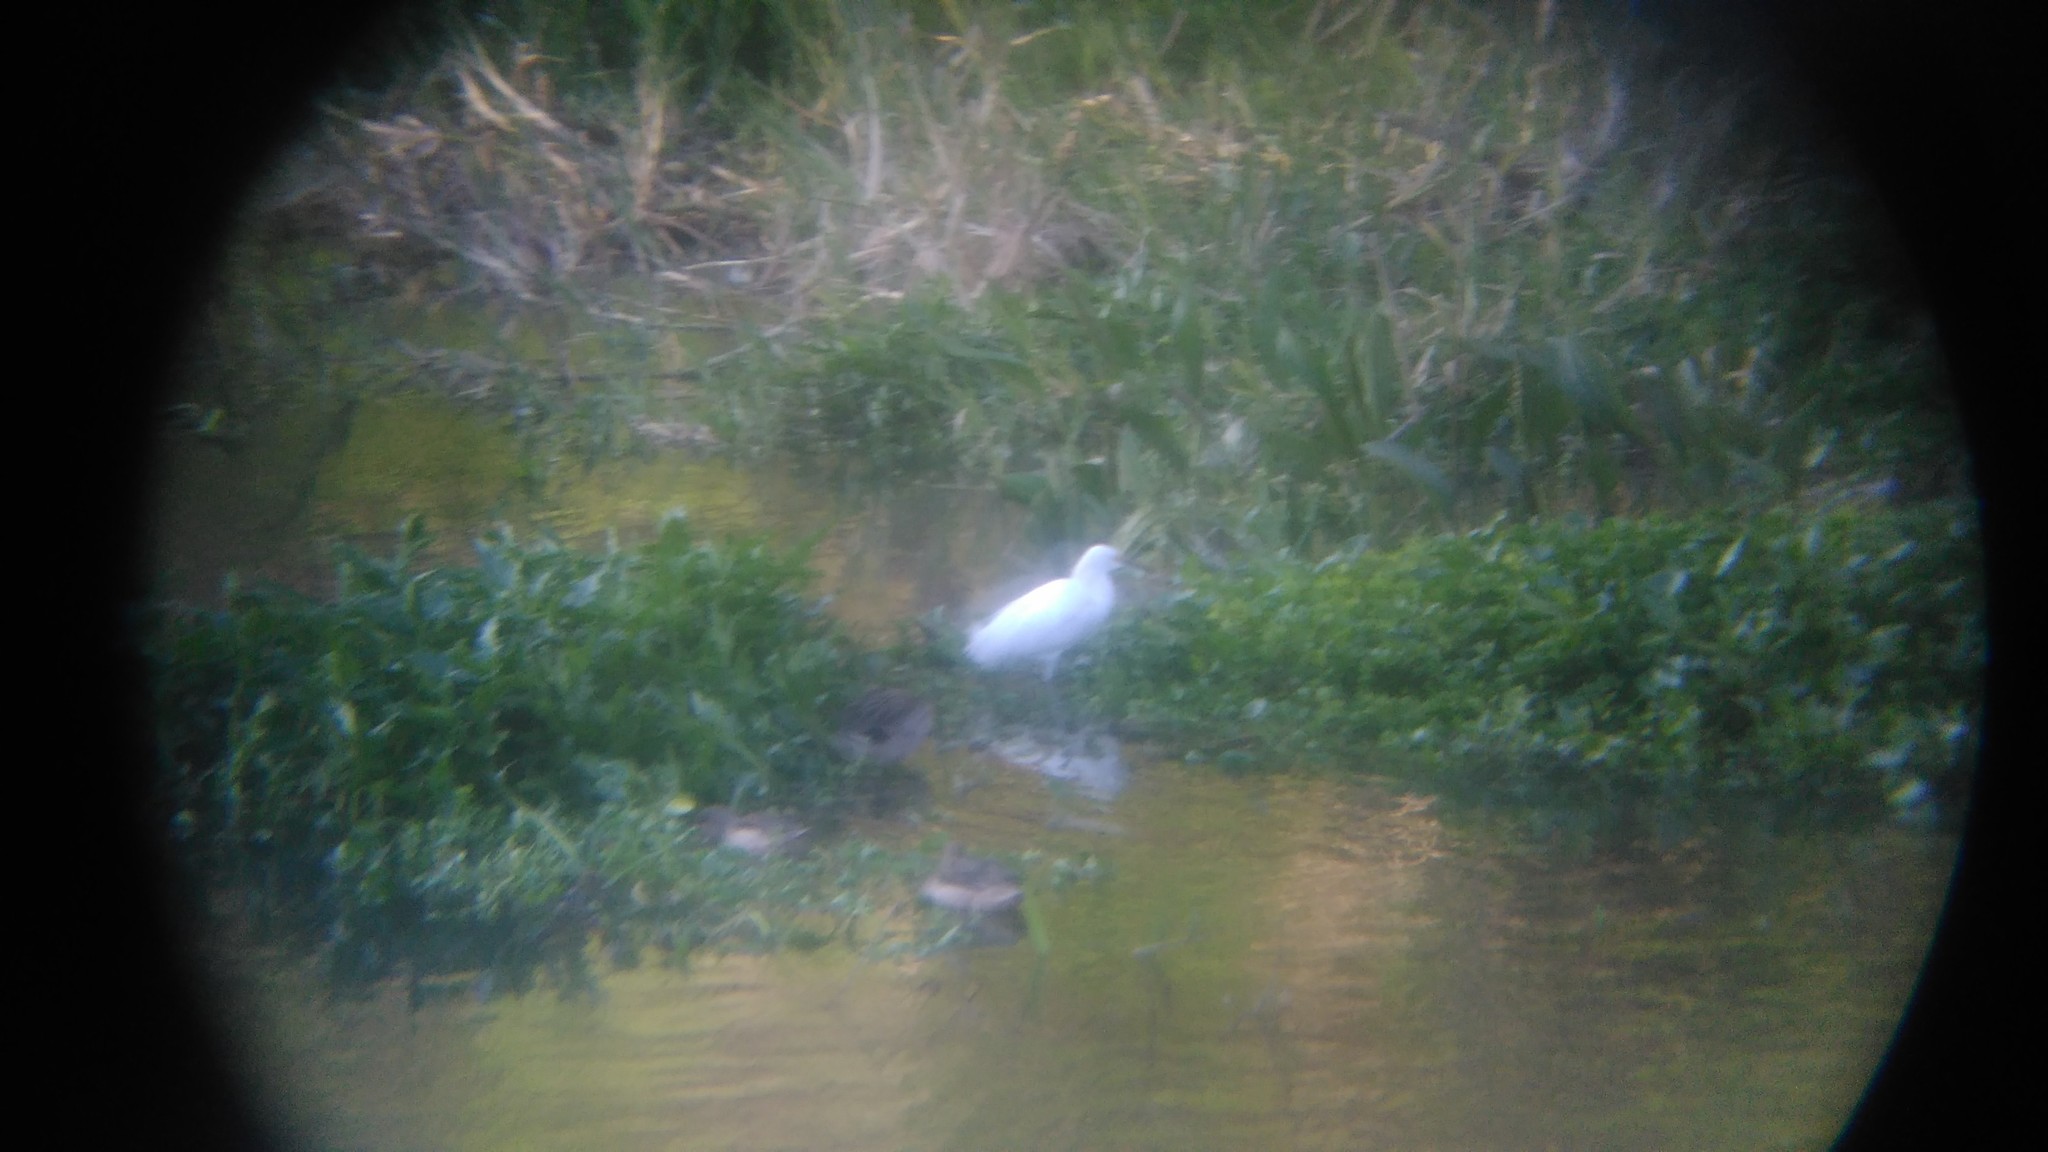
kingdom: Animalia
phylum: Chordata
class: Aves
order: Pelecaniformes
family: Ardeidae
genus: Egretta
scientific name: Egretta thula
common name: Snowy egret
